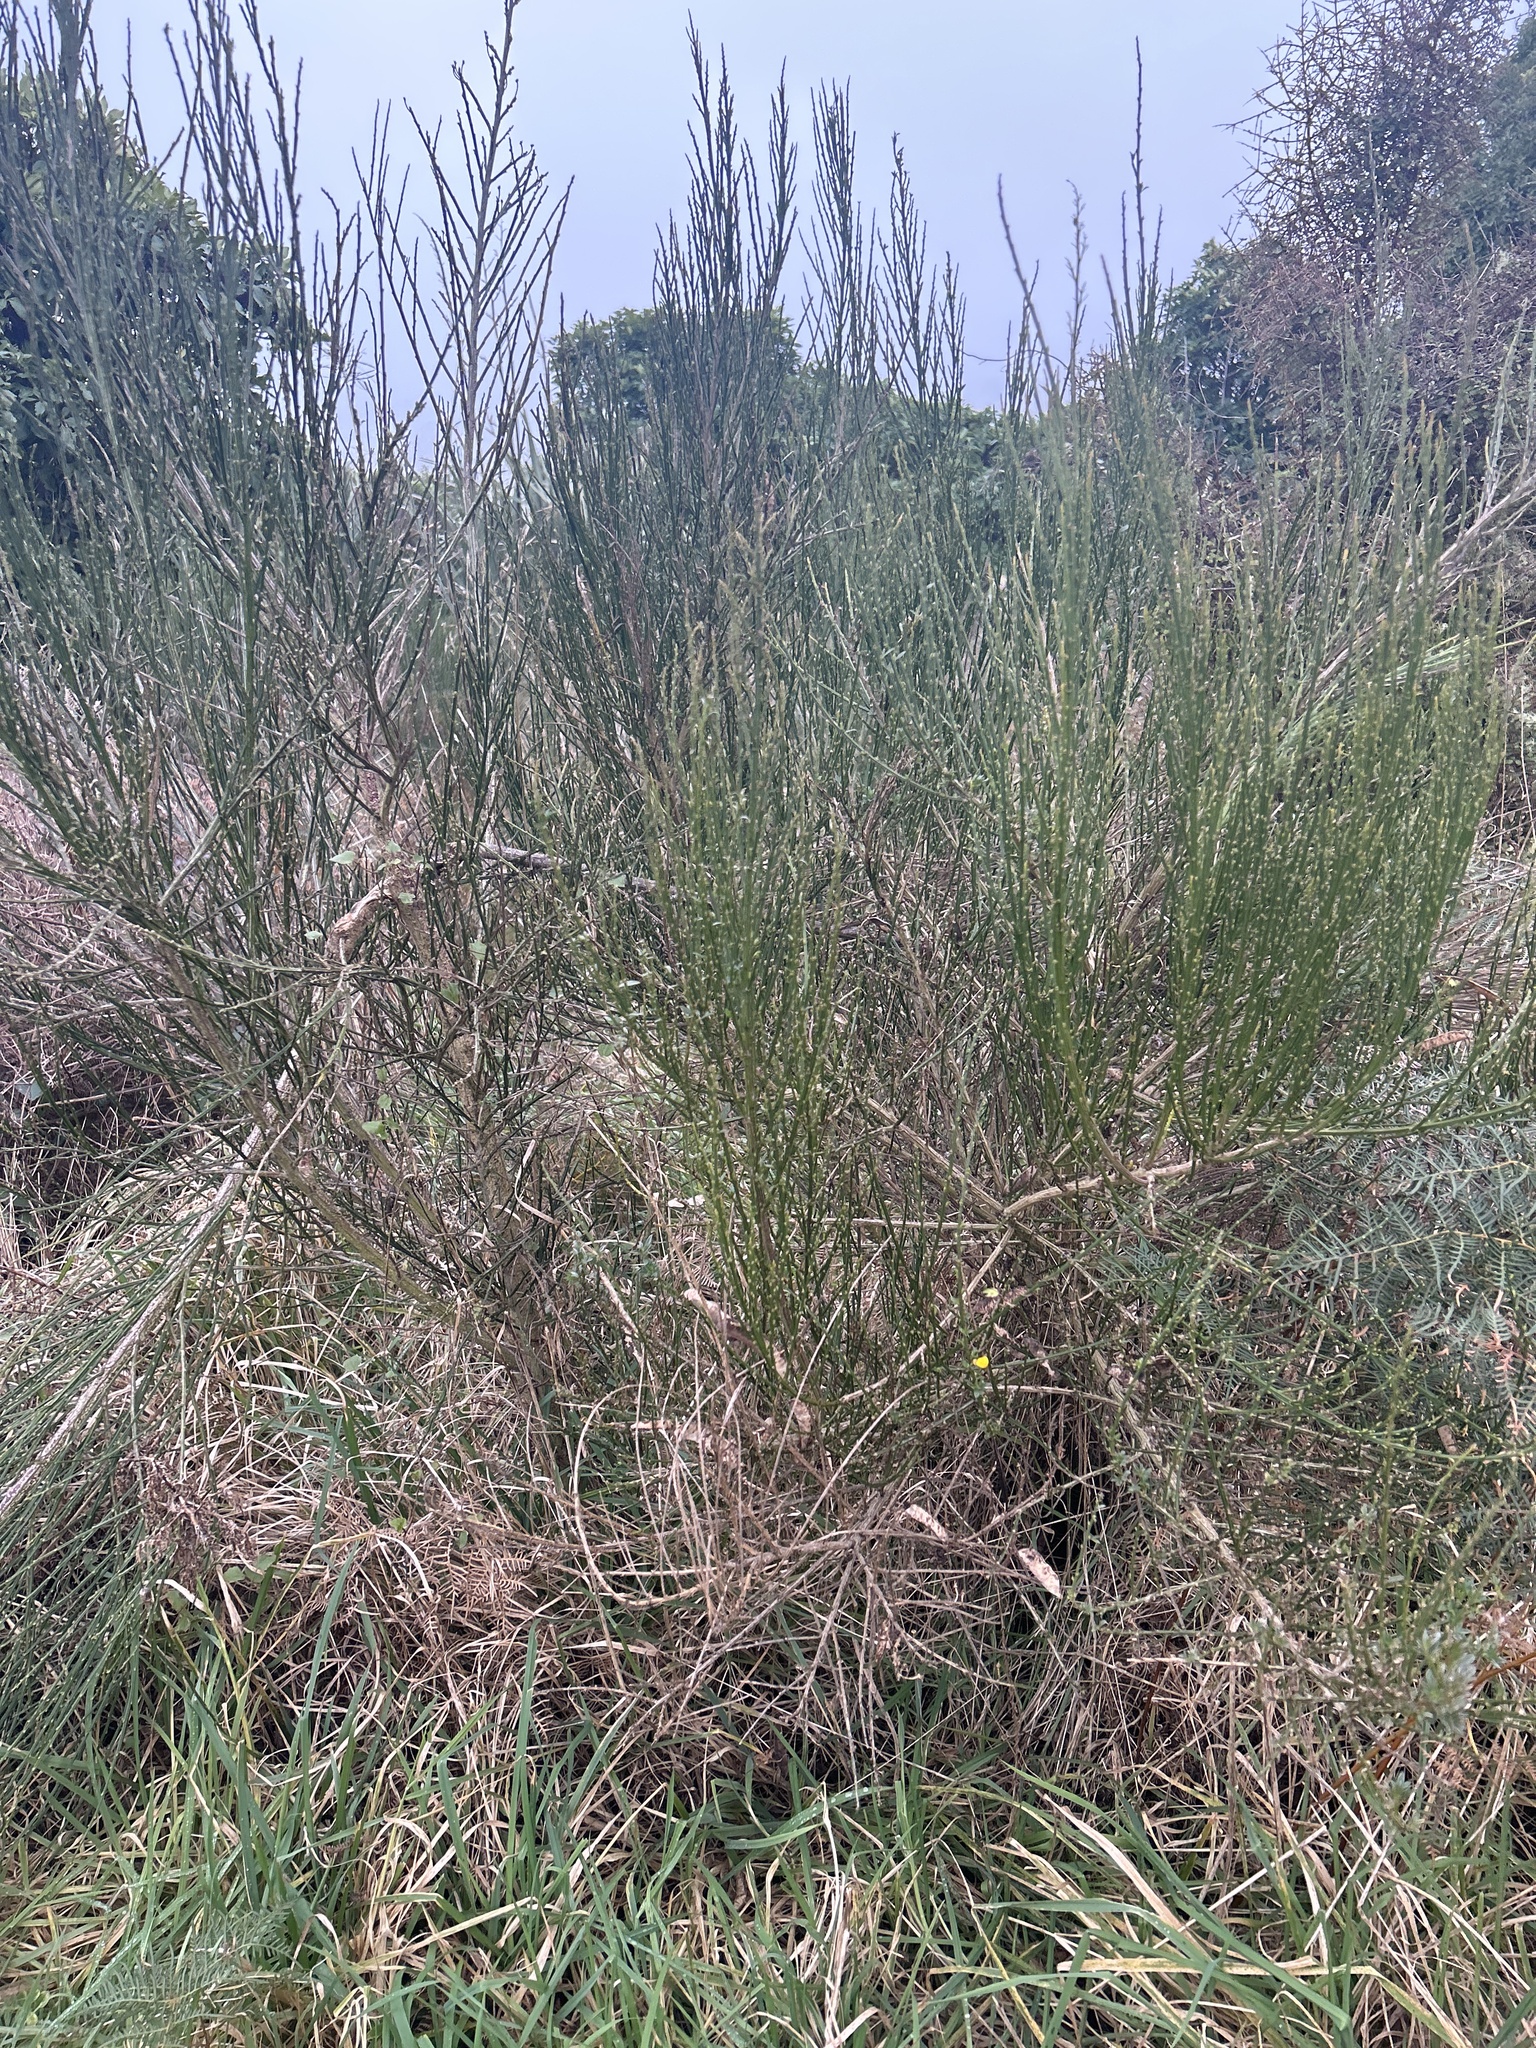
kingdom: Plantae
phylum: Tracheophyta
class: Magnoliopsida
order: Fabales
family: Fabaceae
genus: Cytisus
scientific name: Cytisus scoparius
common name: Scotch broom
